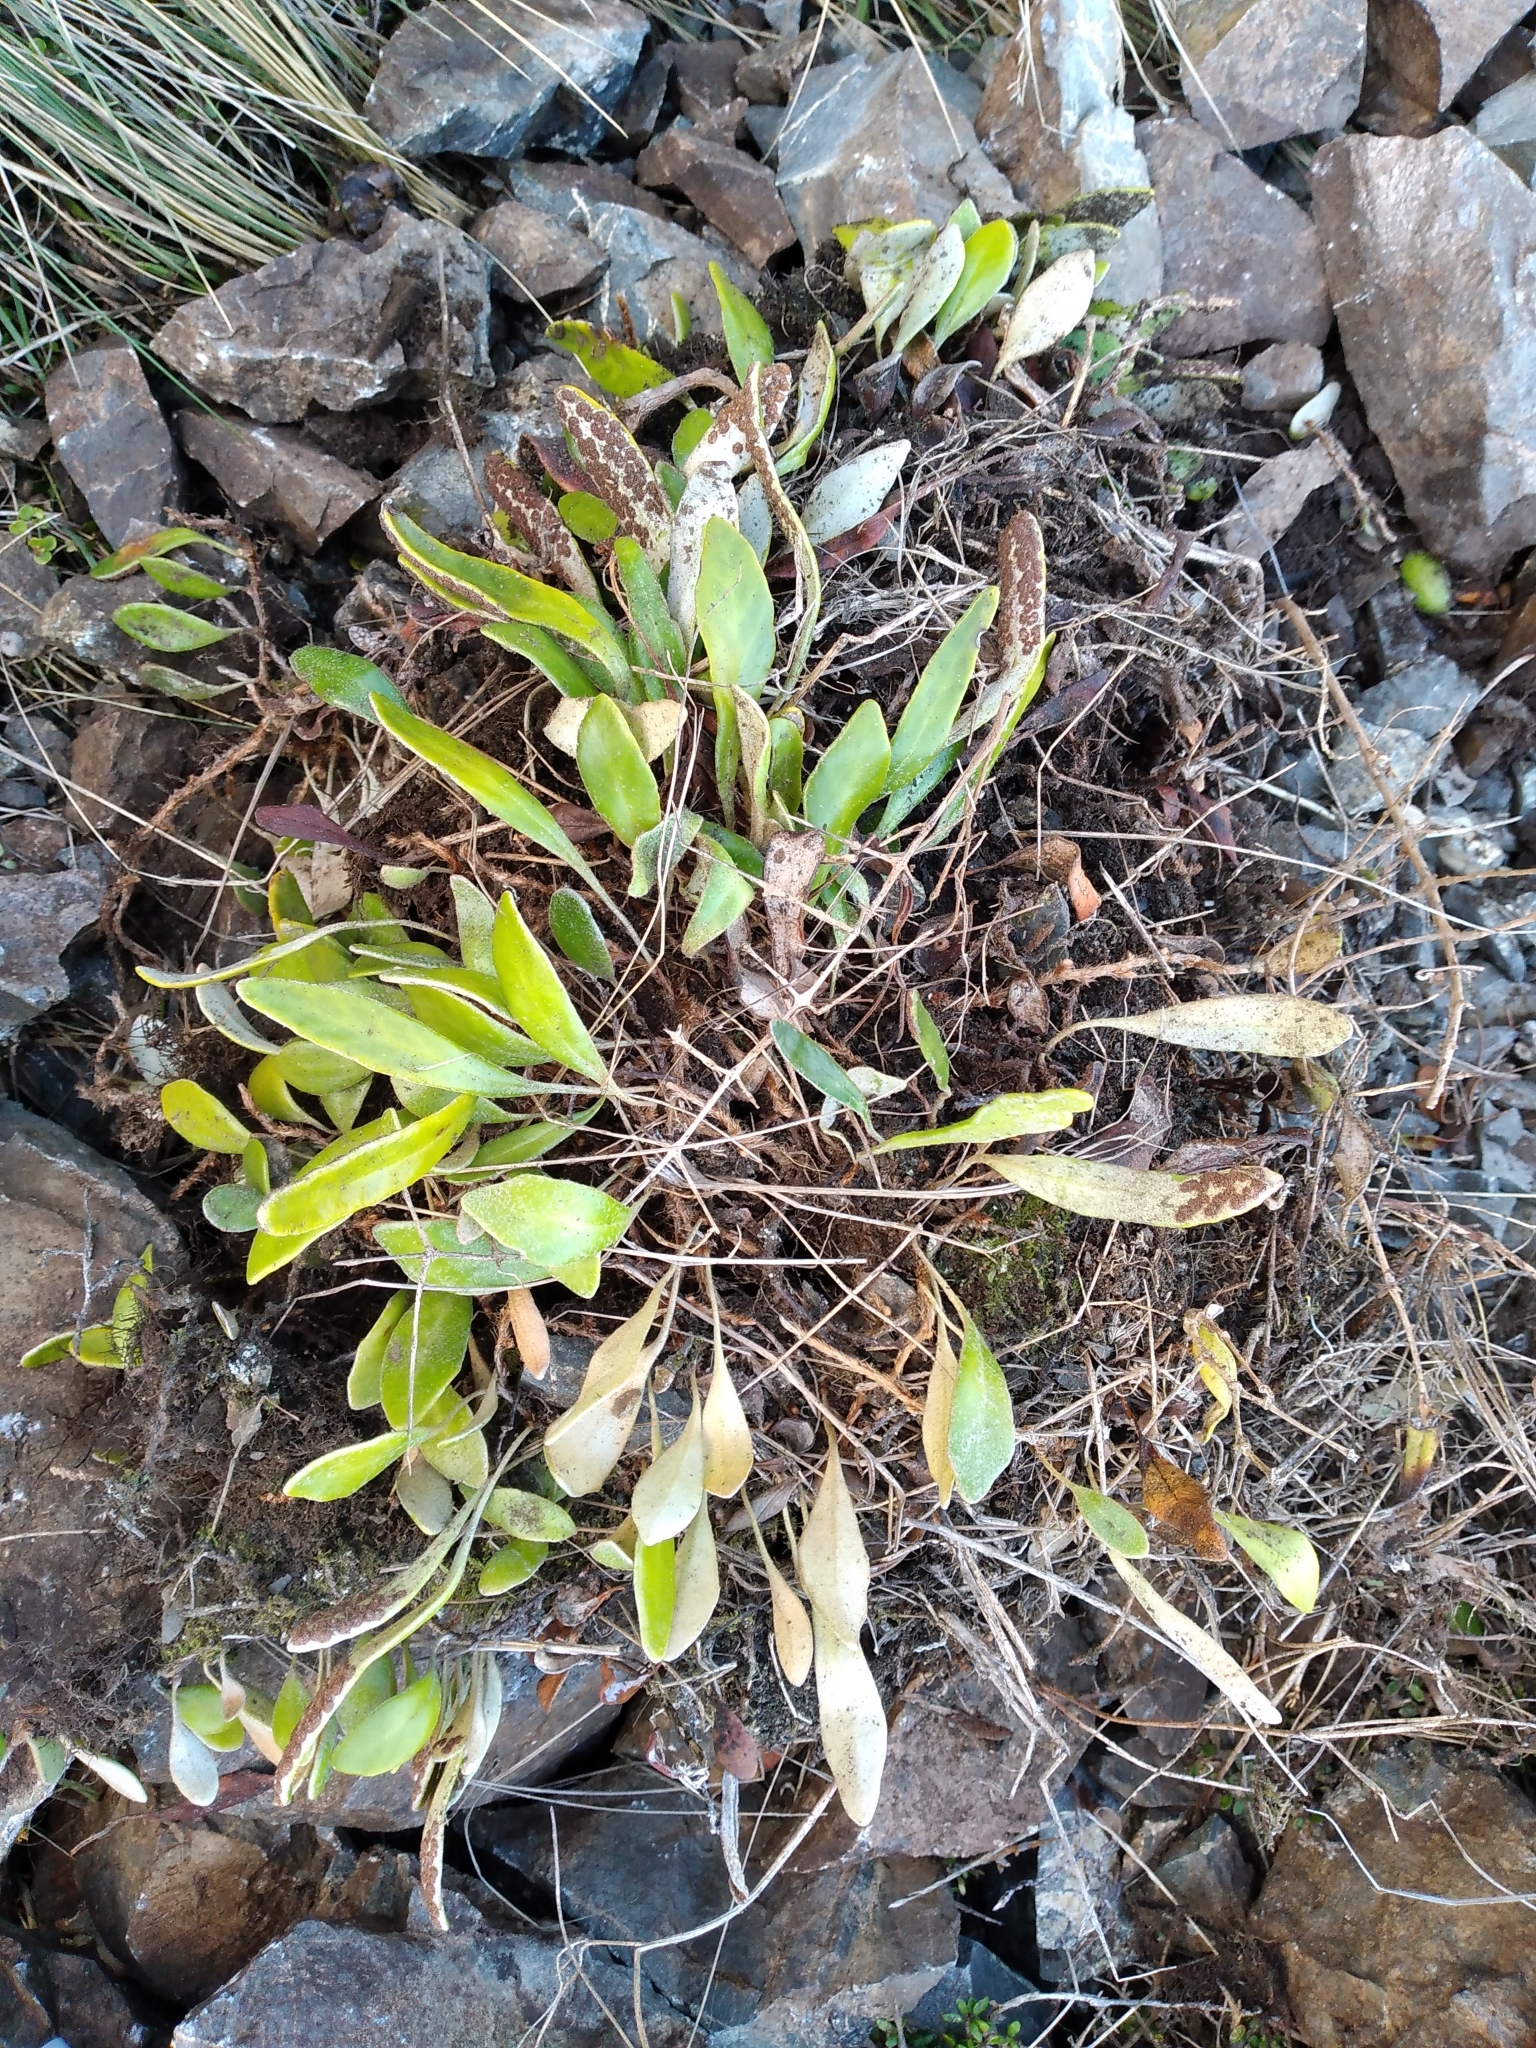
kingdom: Plantae
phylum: Tracheophyta
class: Polypodiopsida
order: Polypodiales
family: Polypodiaceae
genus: Pyrrosia
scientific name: Pyrrosia eleagnifolia
